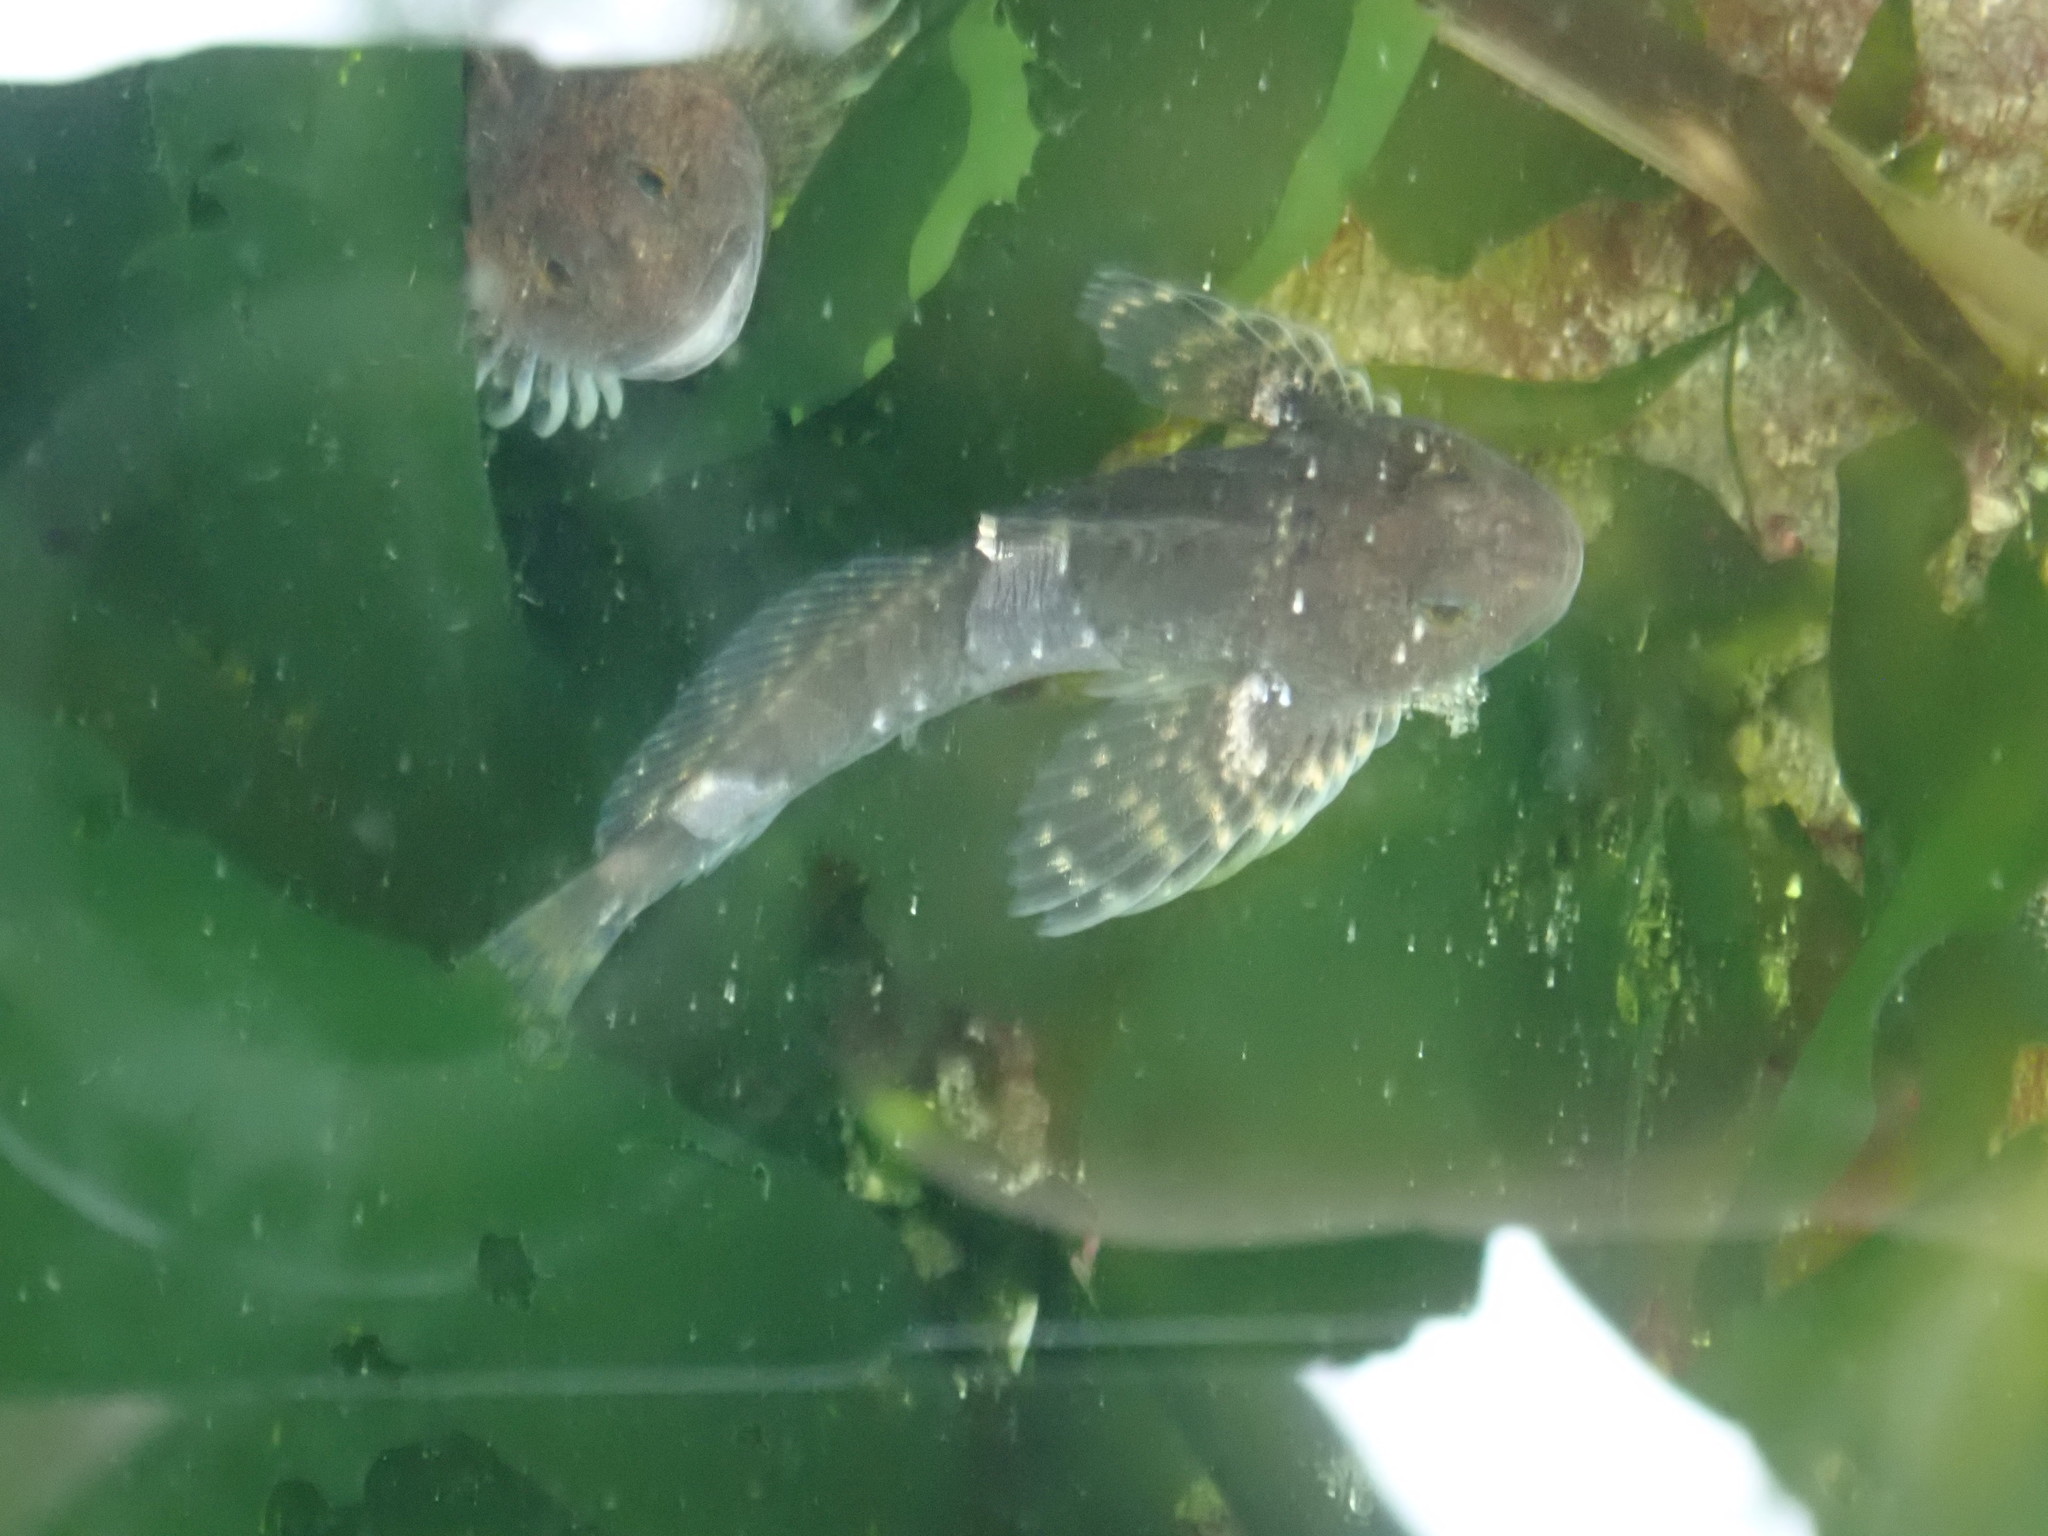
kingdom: Animalia
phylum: Chordata
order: Scorpaeniformes
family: Cottidae
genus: Clinocottus
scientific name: Clinocottus globiceps
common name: Mosshead sculpin
